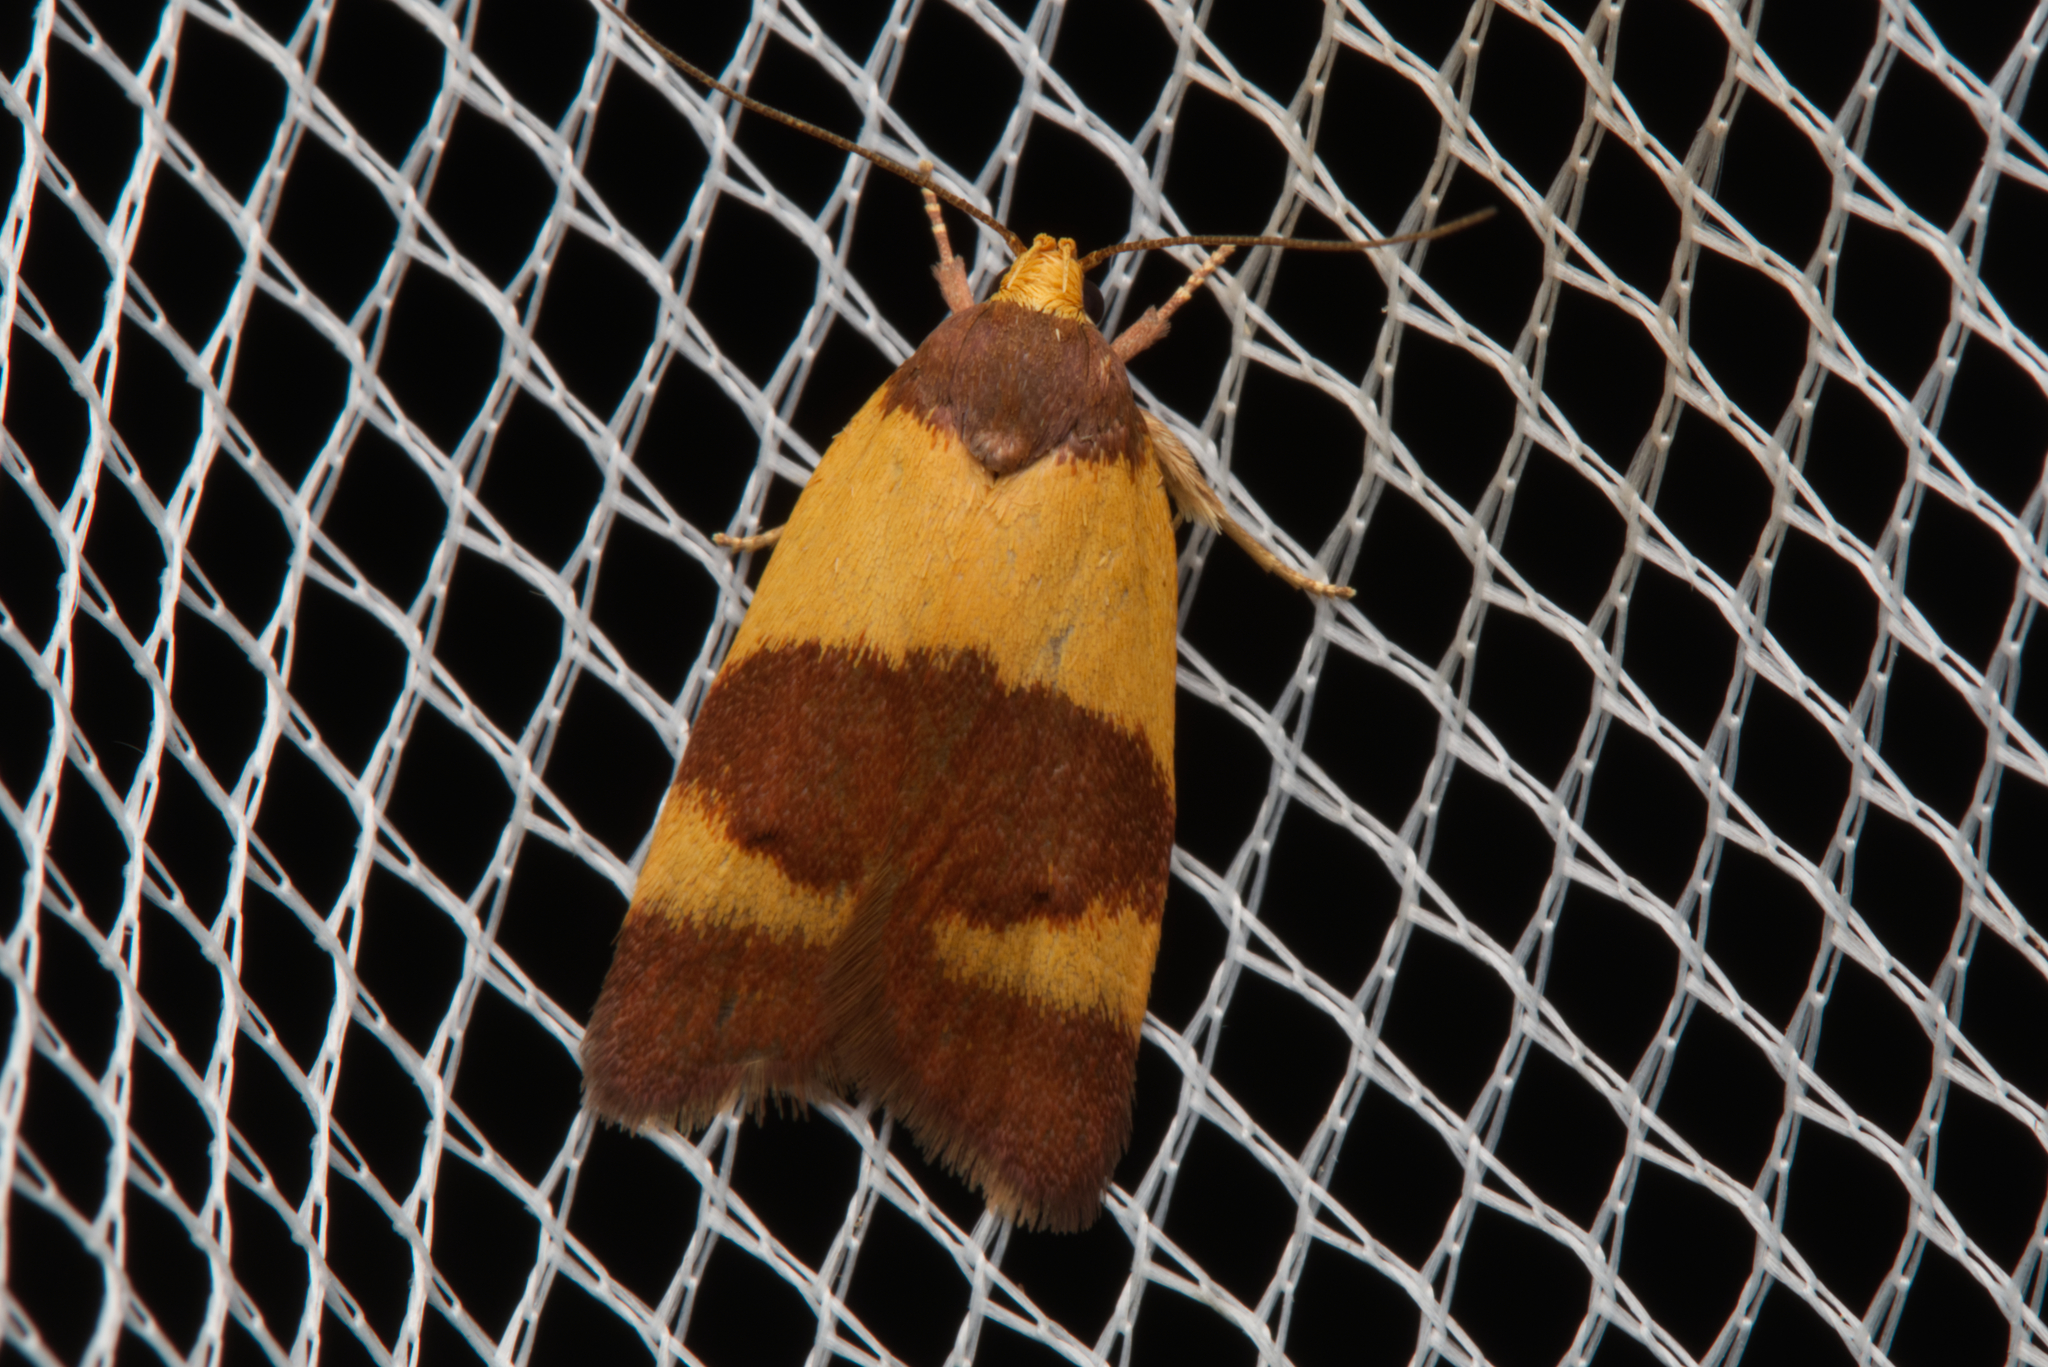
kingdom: Animalia
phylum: Arthropoda
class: Insecta
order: Lepidoptera
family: Oecophoridae
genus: Eochrois
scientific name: Eochrois epidesma
